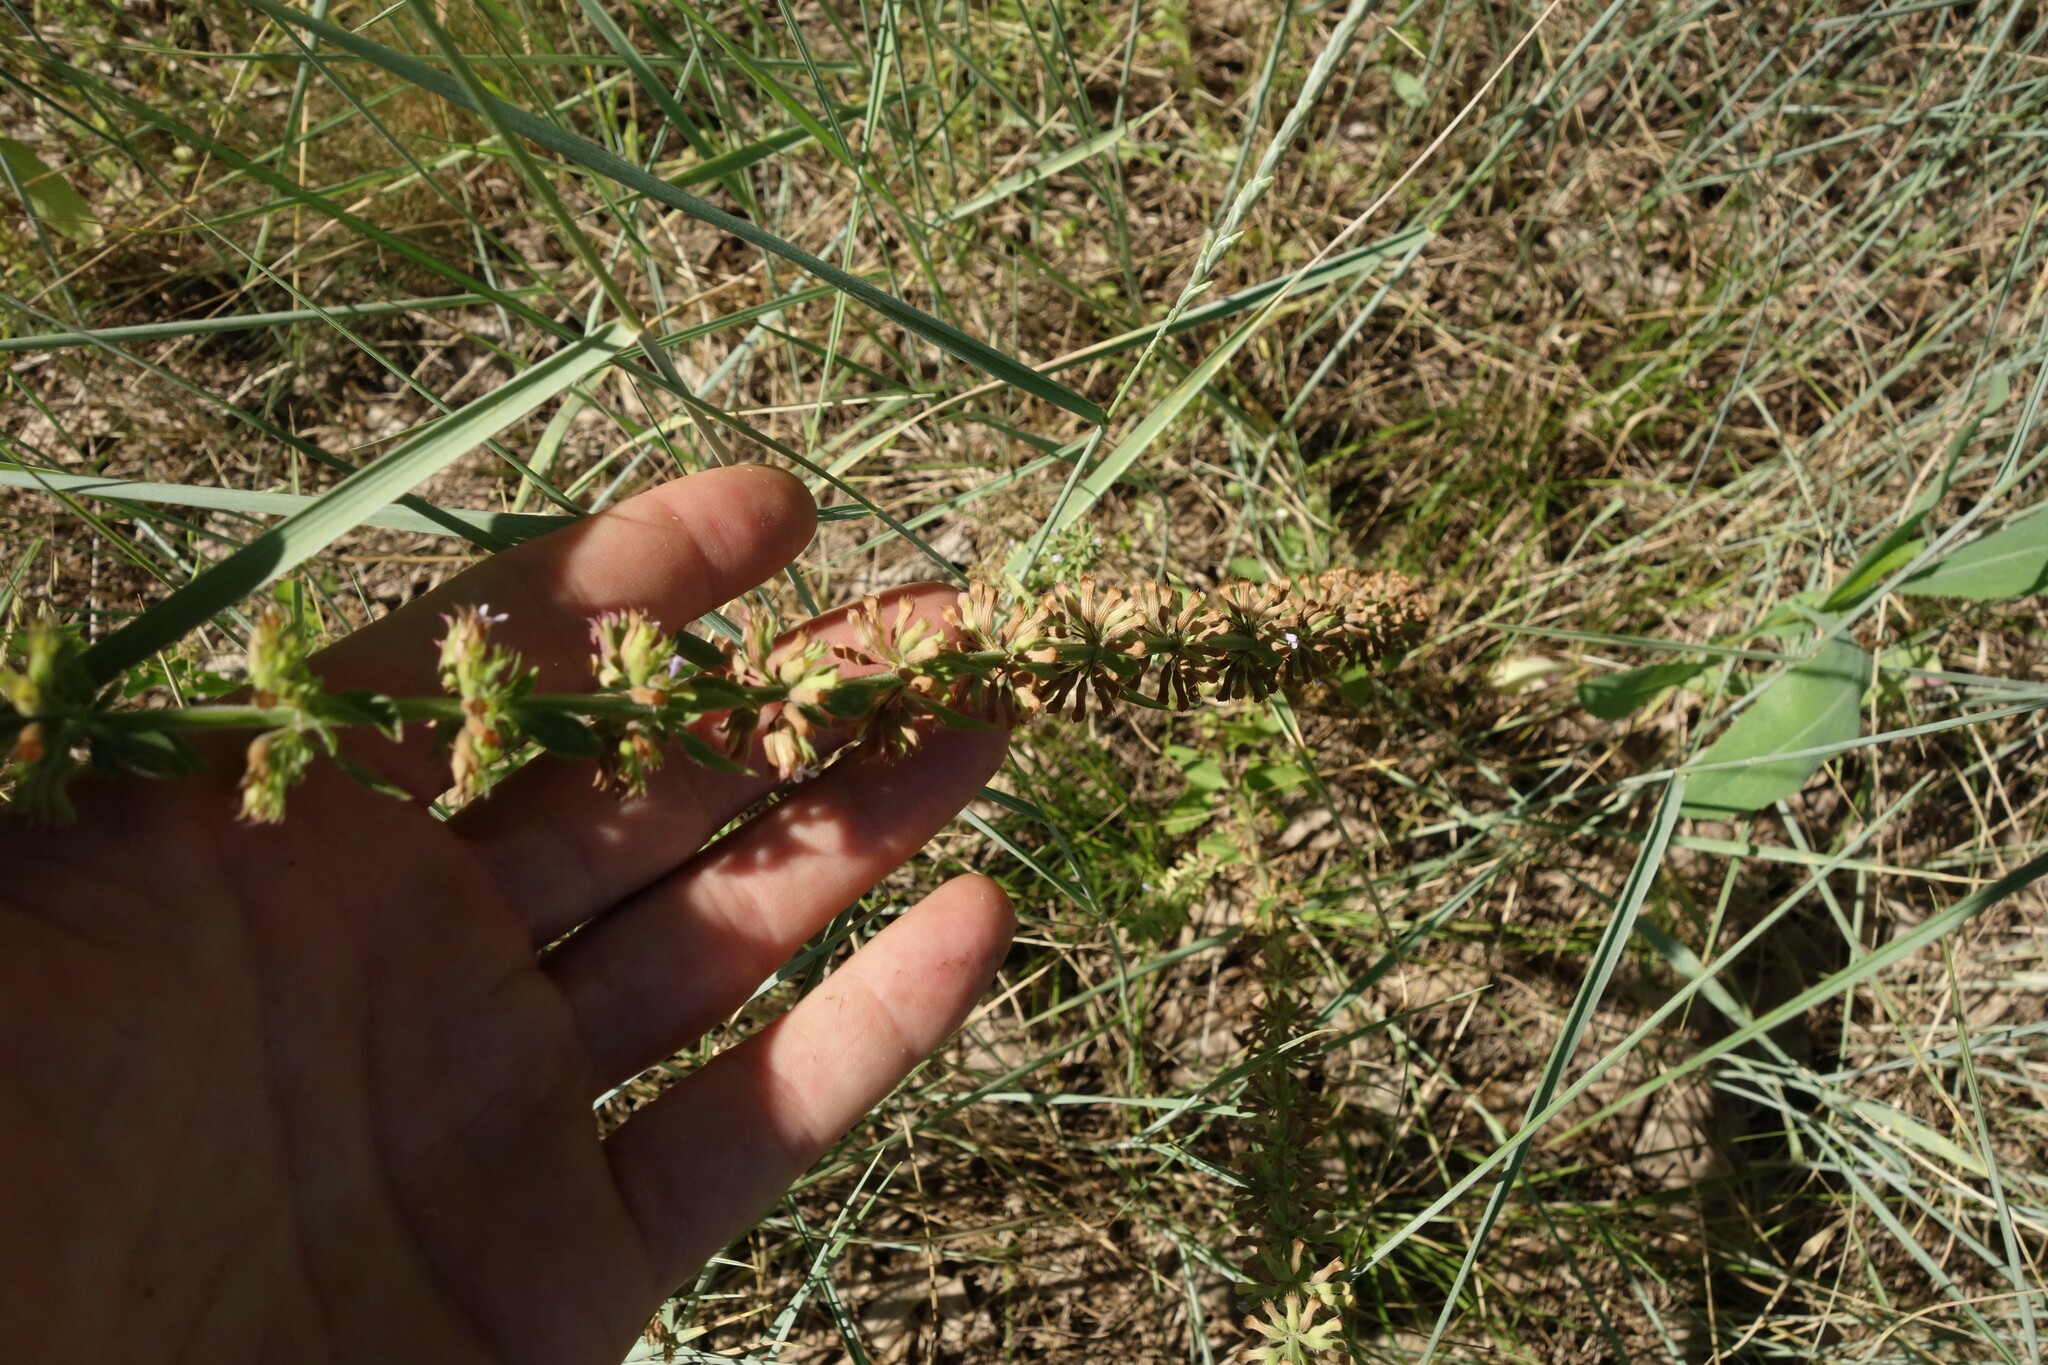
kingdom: Plantae
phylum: Tracheophyta
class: Magnoliopsida
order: Lamiales
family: Lamiaceae
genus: Dracocephalum
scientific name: Dracocephalum thymiflorum
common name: Thymeleaf dragonhead
